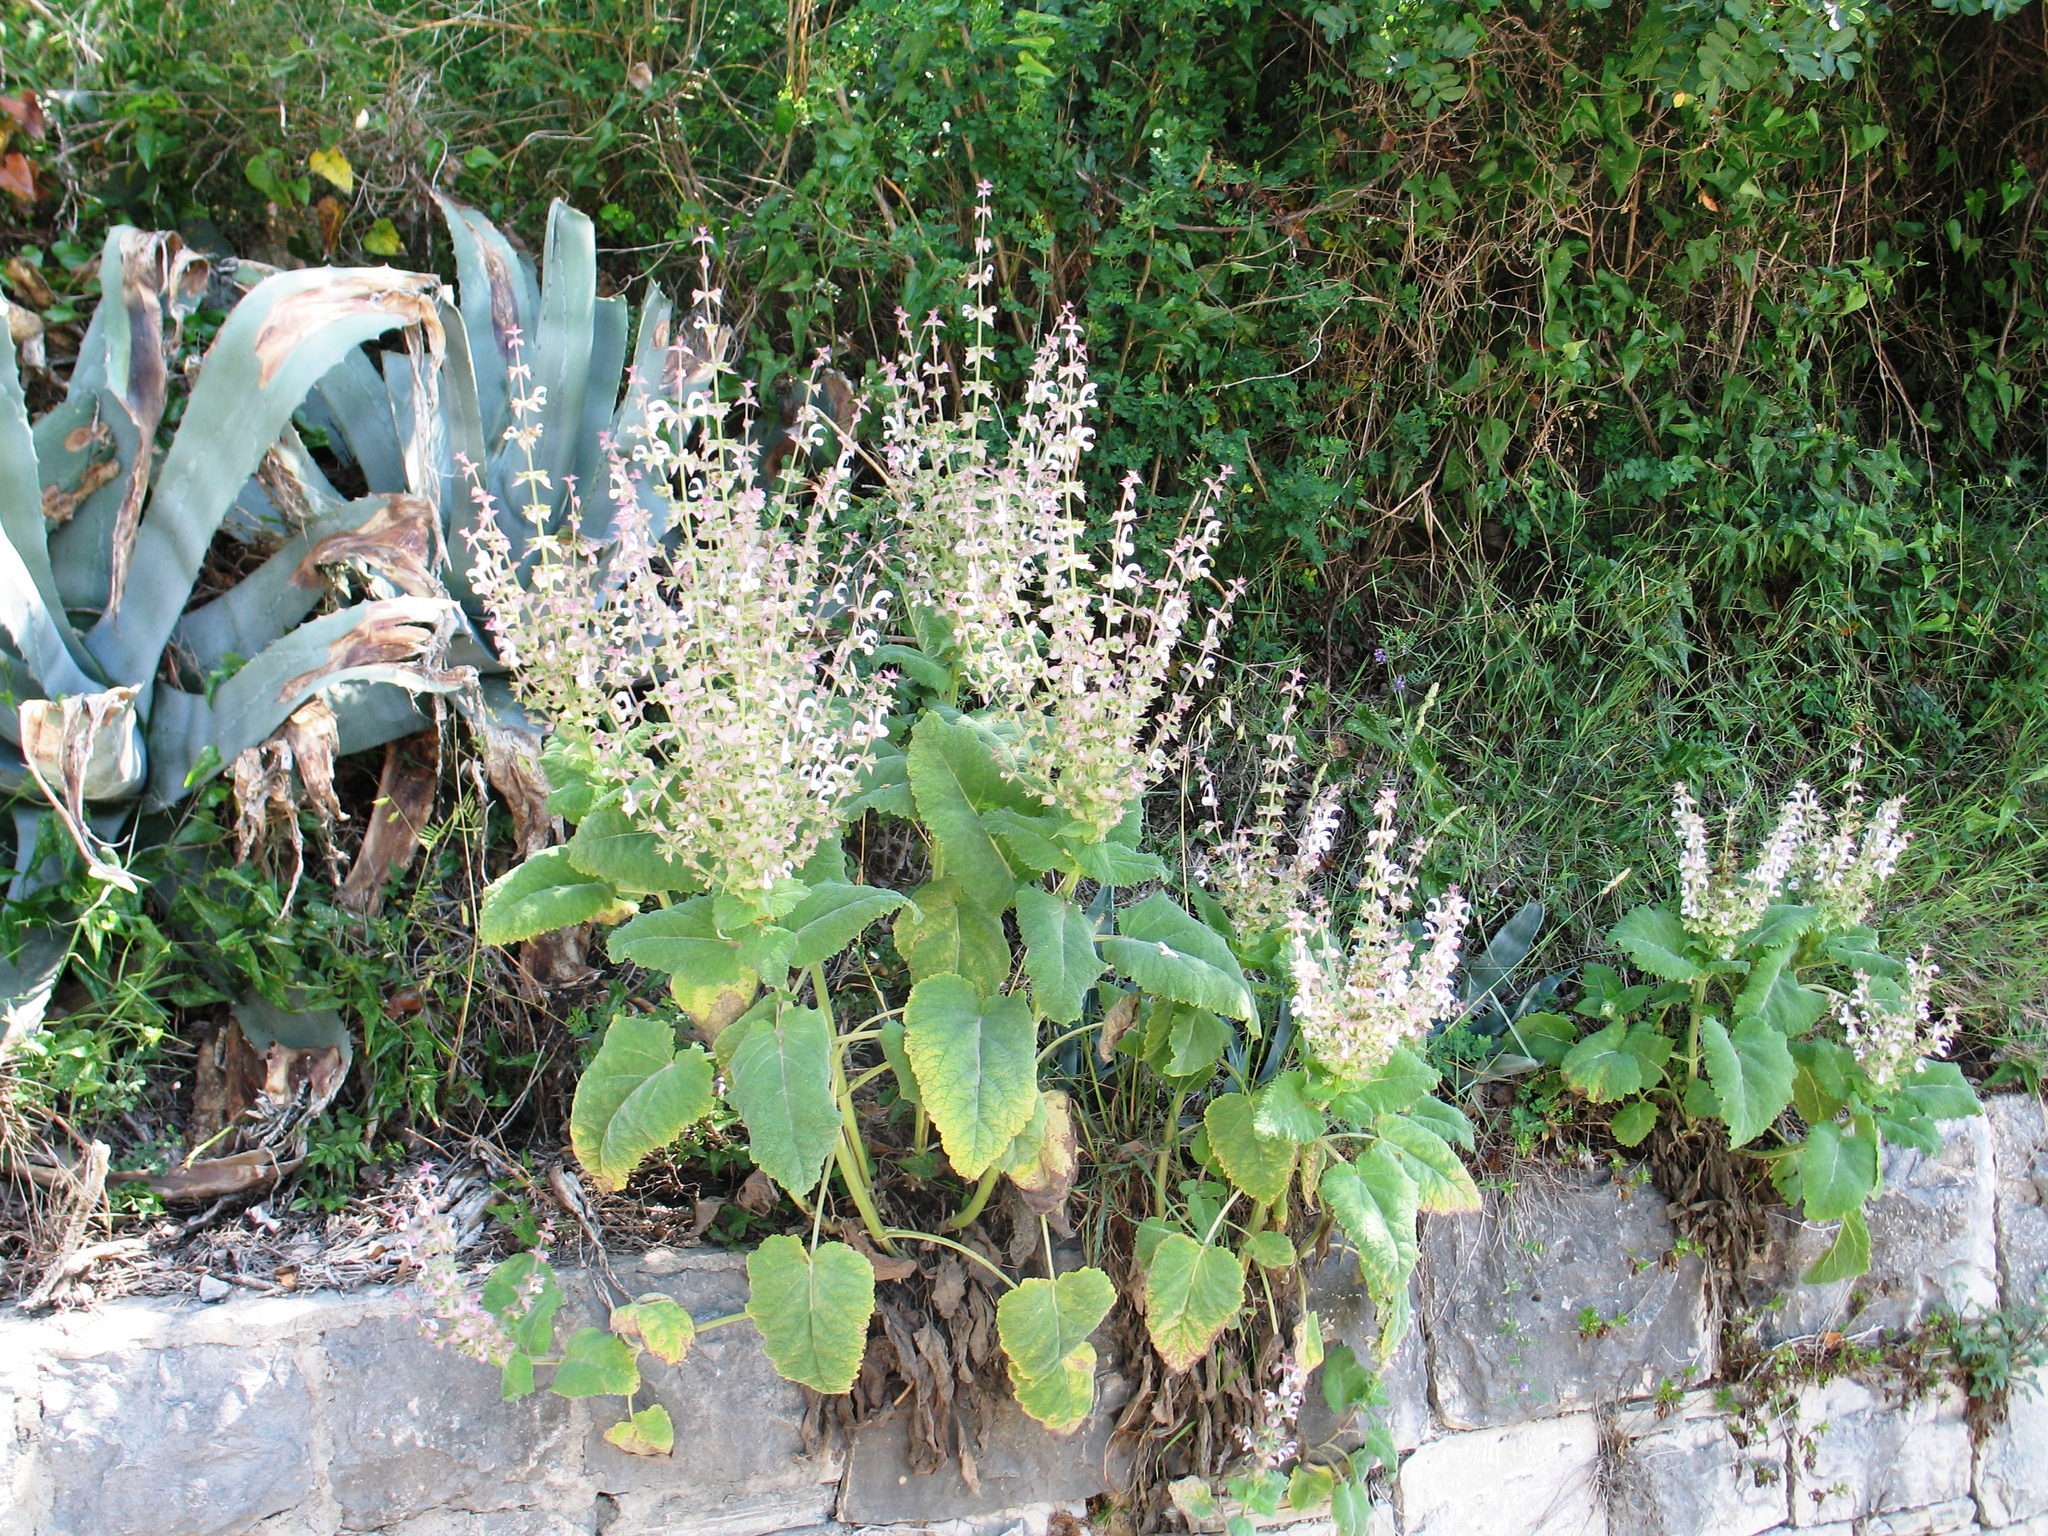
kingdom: Plantae
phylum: Tracheophyta
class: Magnoliopsida
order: Lamiales
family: Lamiaceae
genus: Salvia
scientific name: Salvia sclarea
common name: Clary
